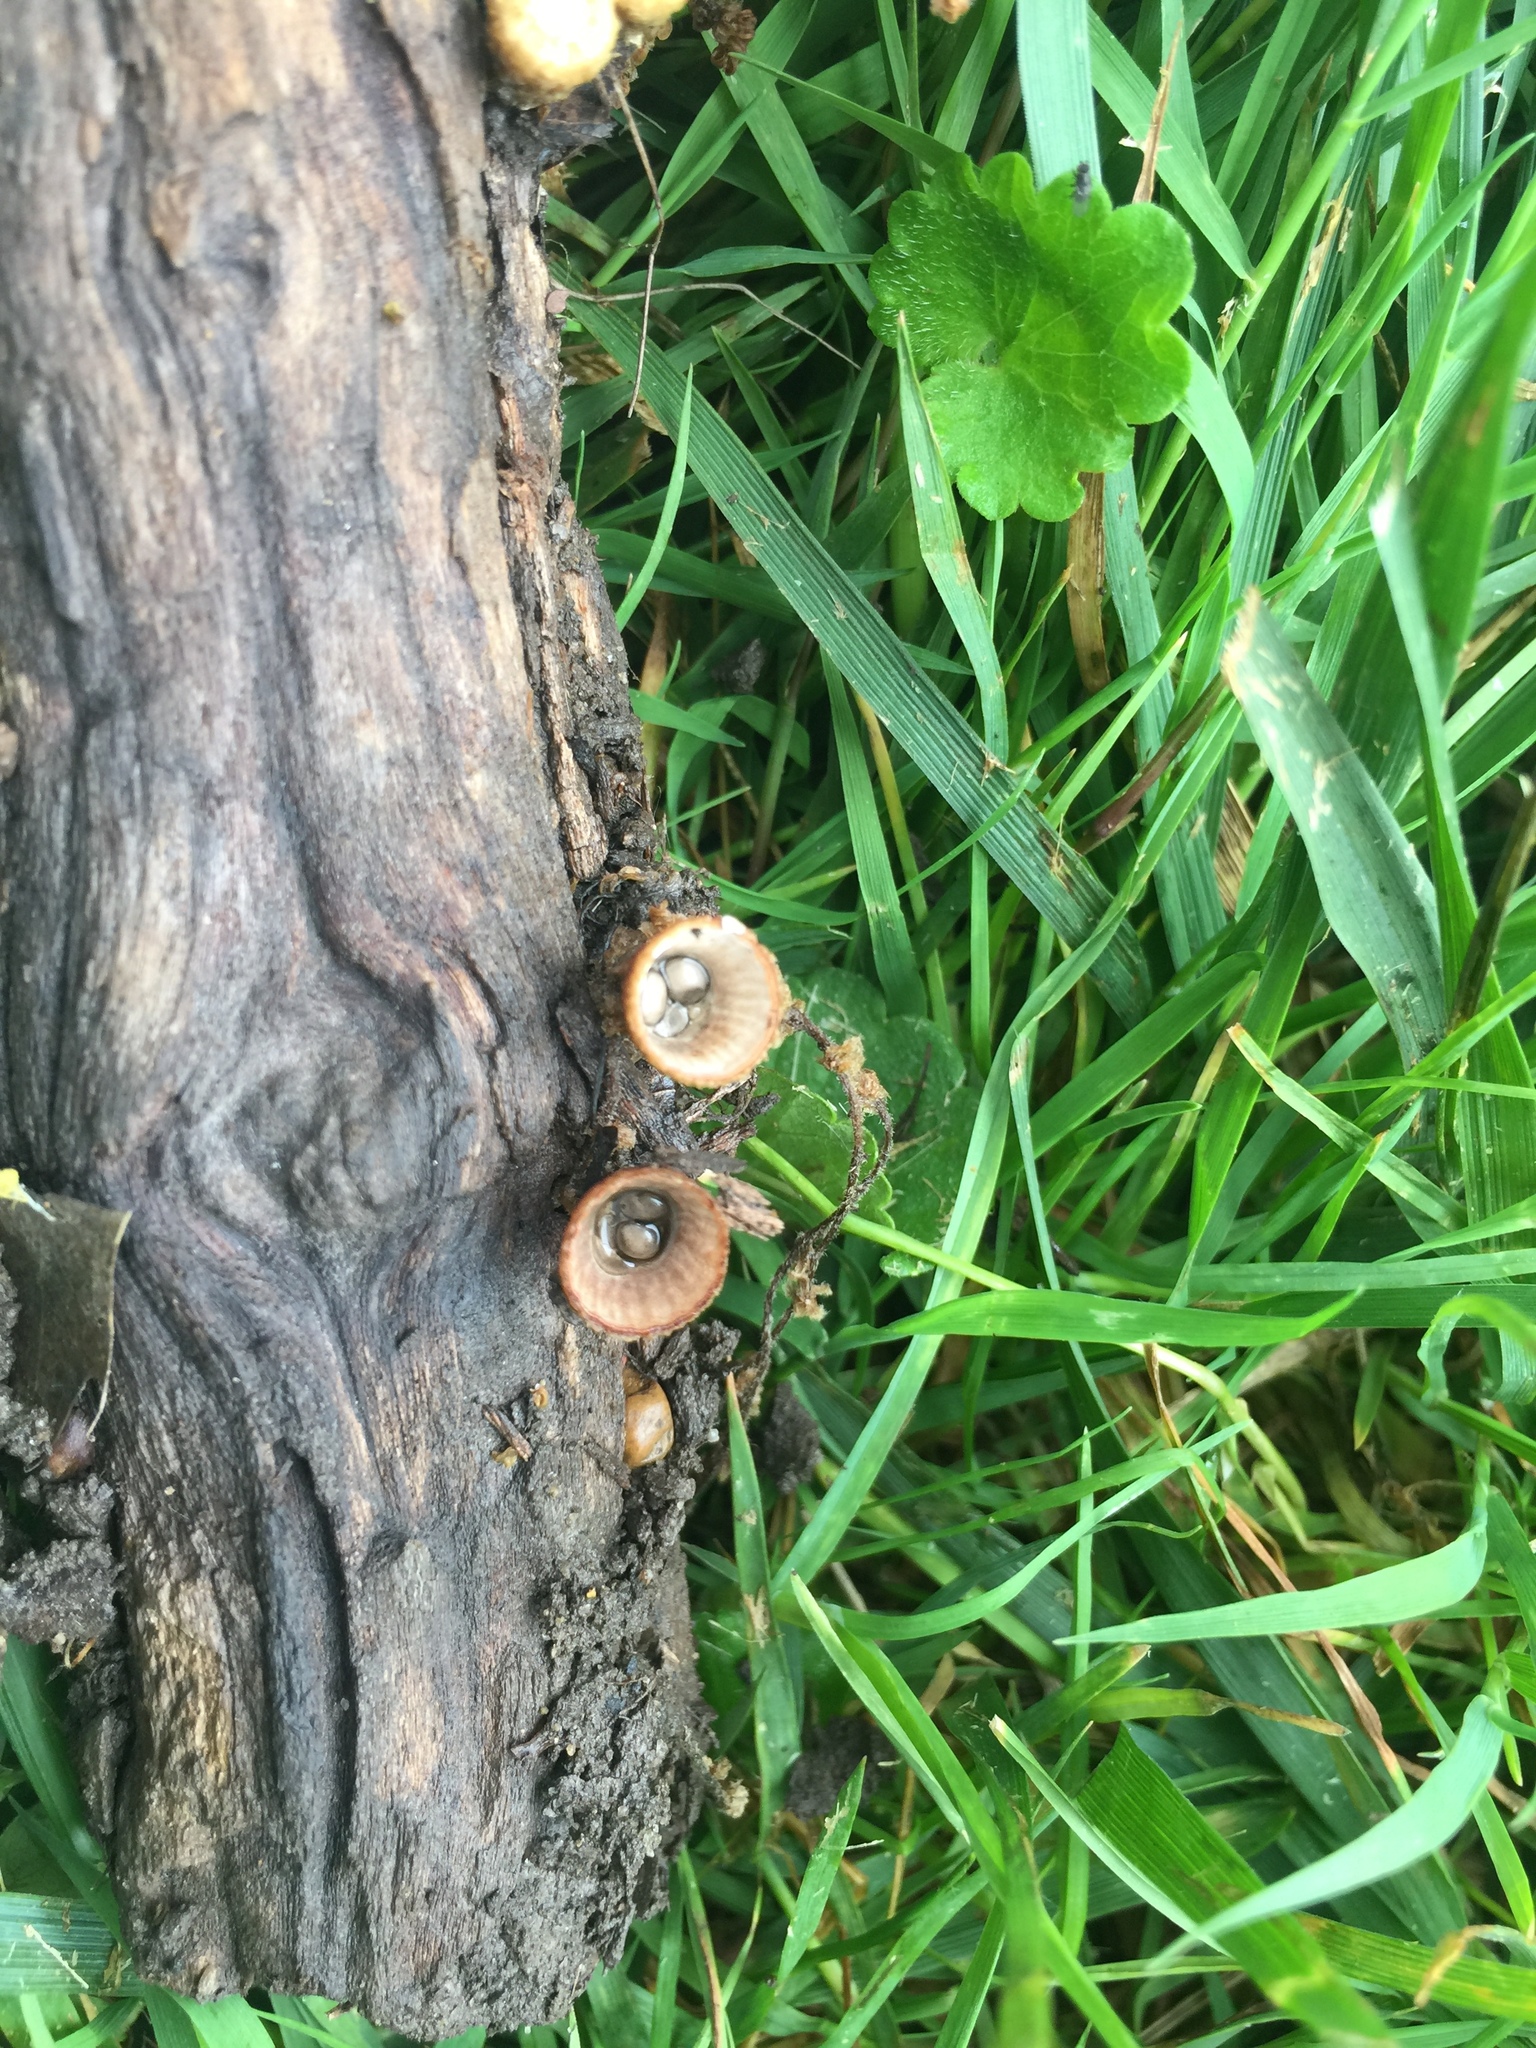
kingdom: Fungi
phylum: Basidiomycota
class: Agaricomycetes
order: Agaricales
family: Agaricaceae
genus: Cyathus
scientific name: Cyathus striatus
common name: Fluted bird's nest
